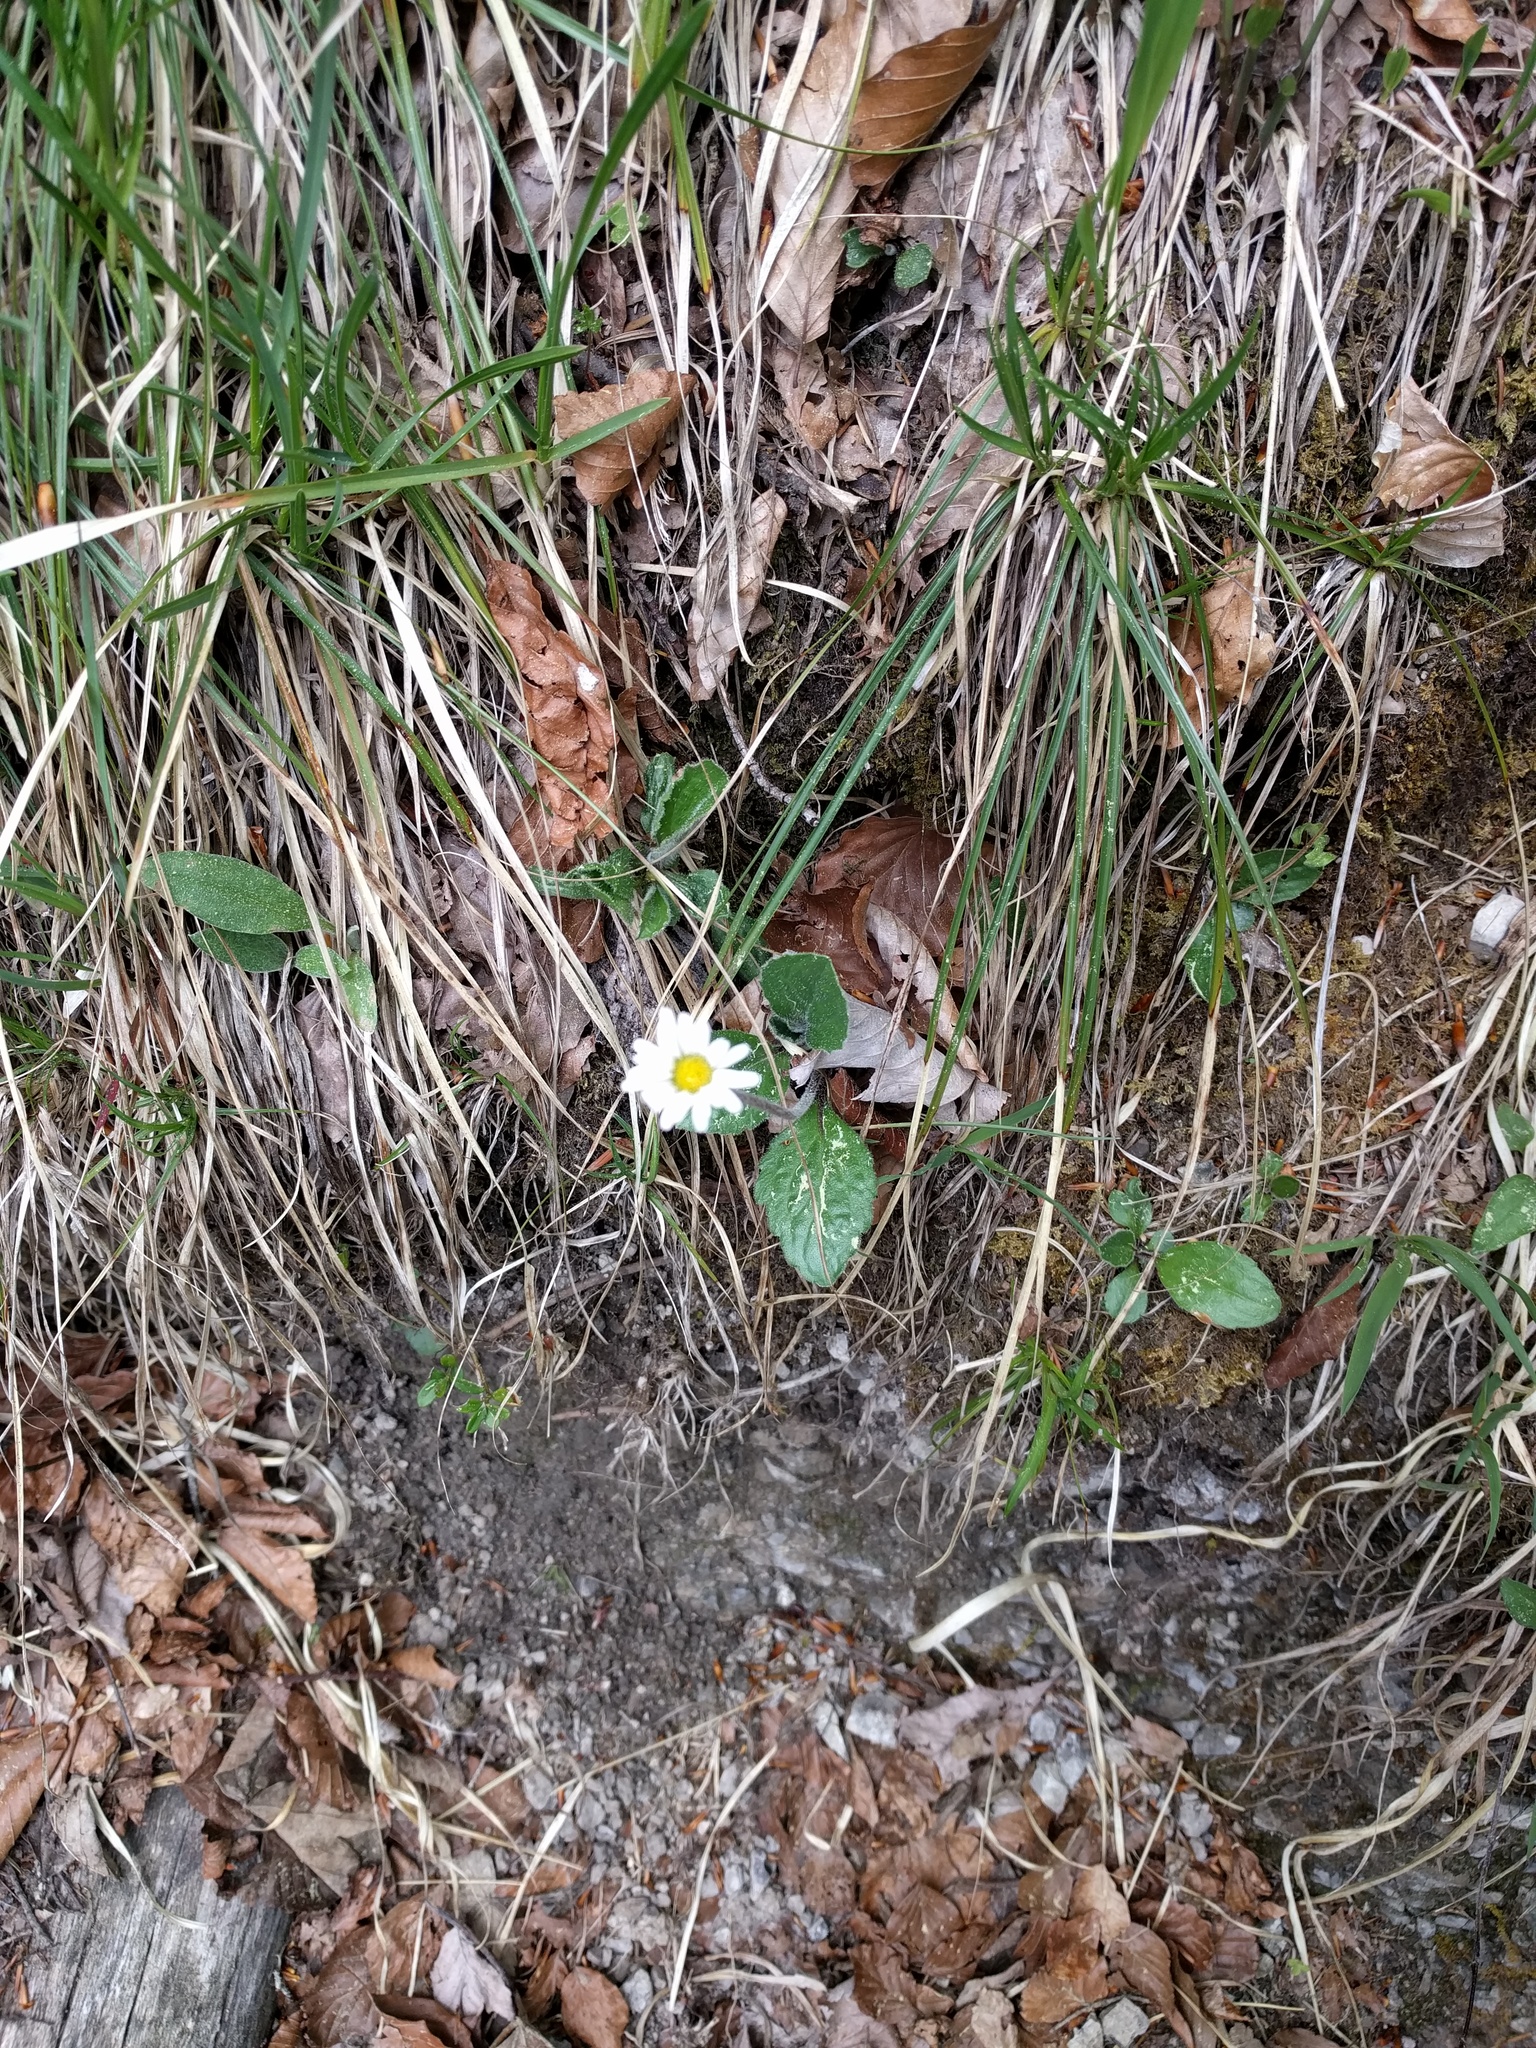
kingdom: Plantae
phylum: Tracheophyta
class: Magnoliopsida
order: Asterales
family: Asteraceae
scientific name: Asteraceae
